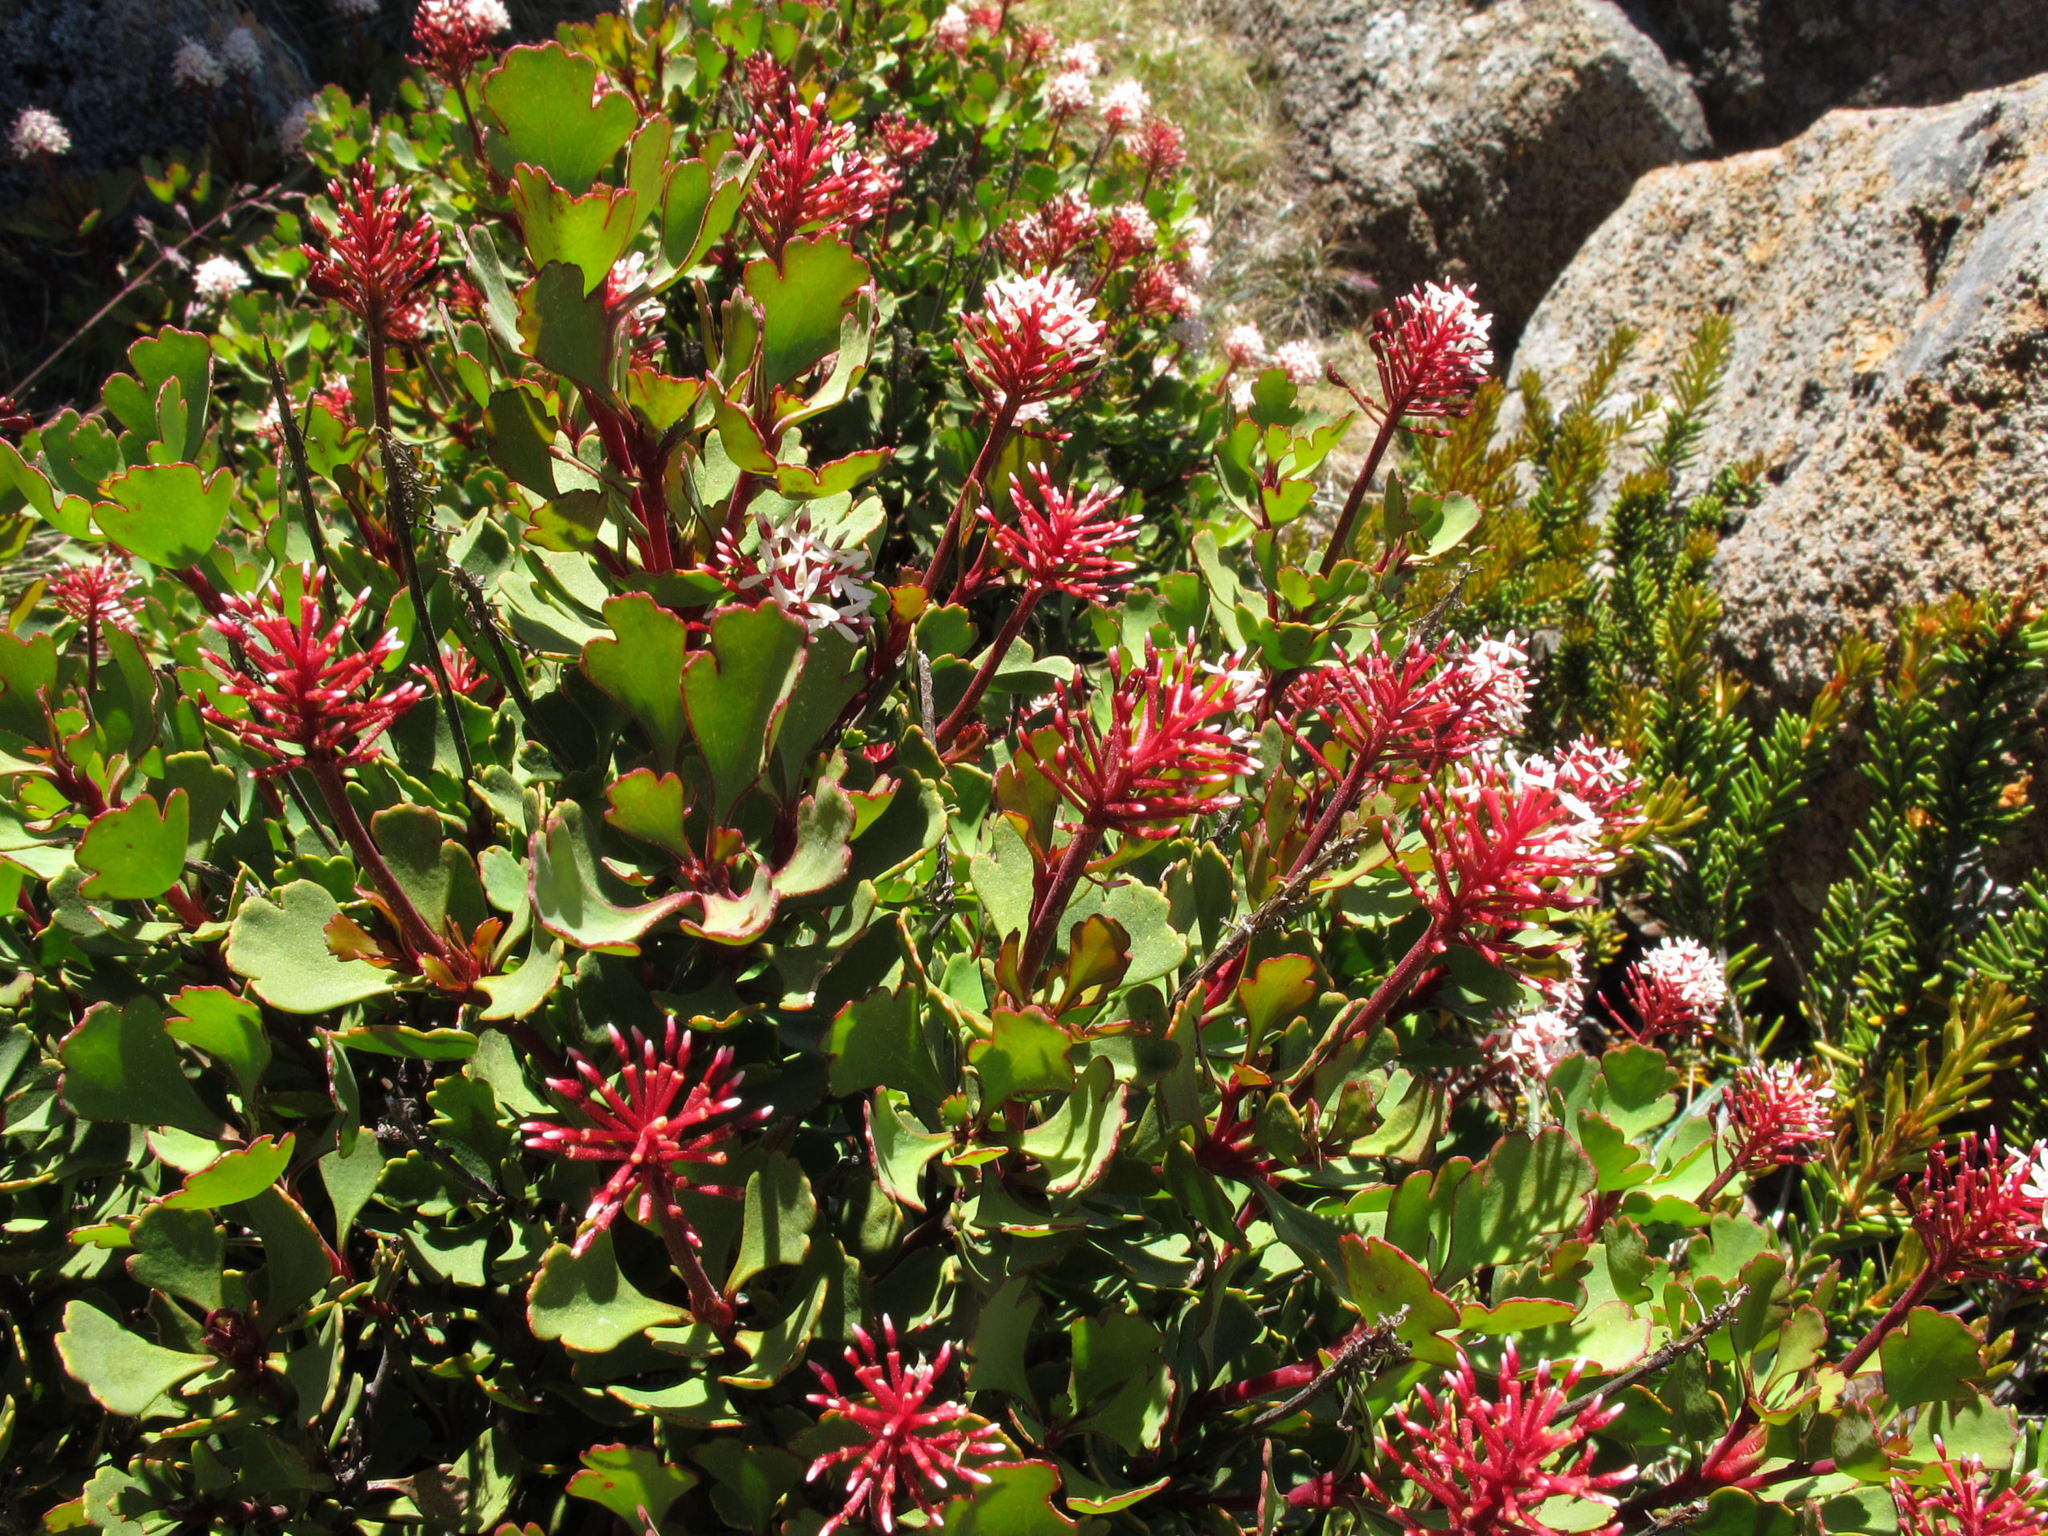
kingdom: Plantae
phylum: Tracheophyta
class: Magnoliopsida
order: Proteales
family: Proteaceae
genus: Bellendena
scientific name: Bellendena montana
